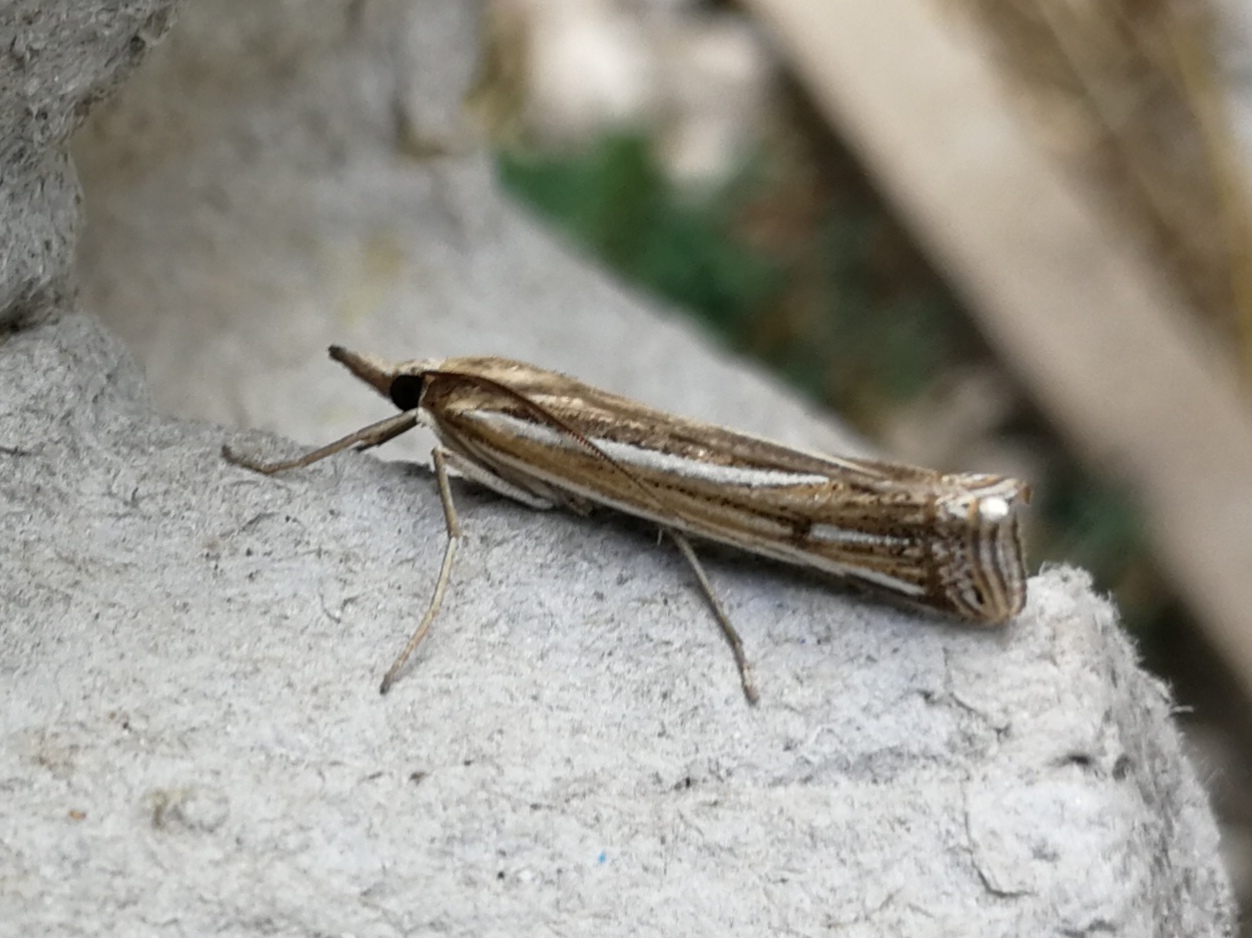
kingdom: Animalia
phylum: Arthropoda
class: Insecta
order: Lepidoptera
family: Crambidae
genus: Ancylolomia
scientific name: Ancylolomia tentaculella
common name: Scarce striped grass-veneer
